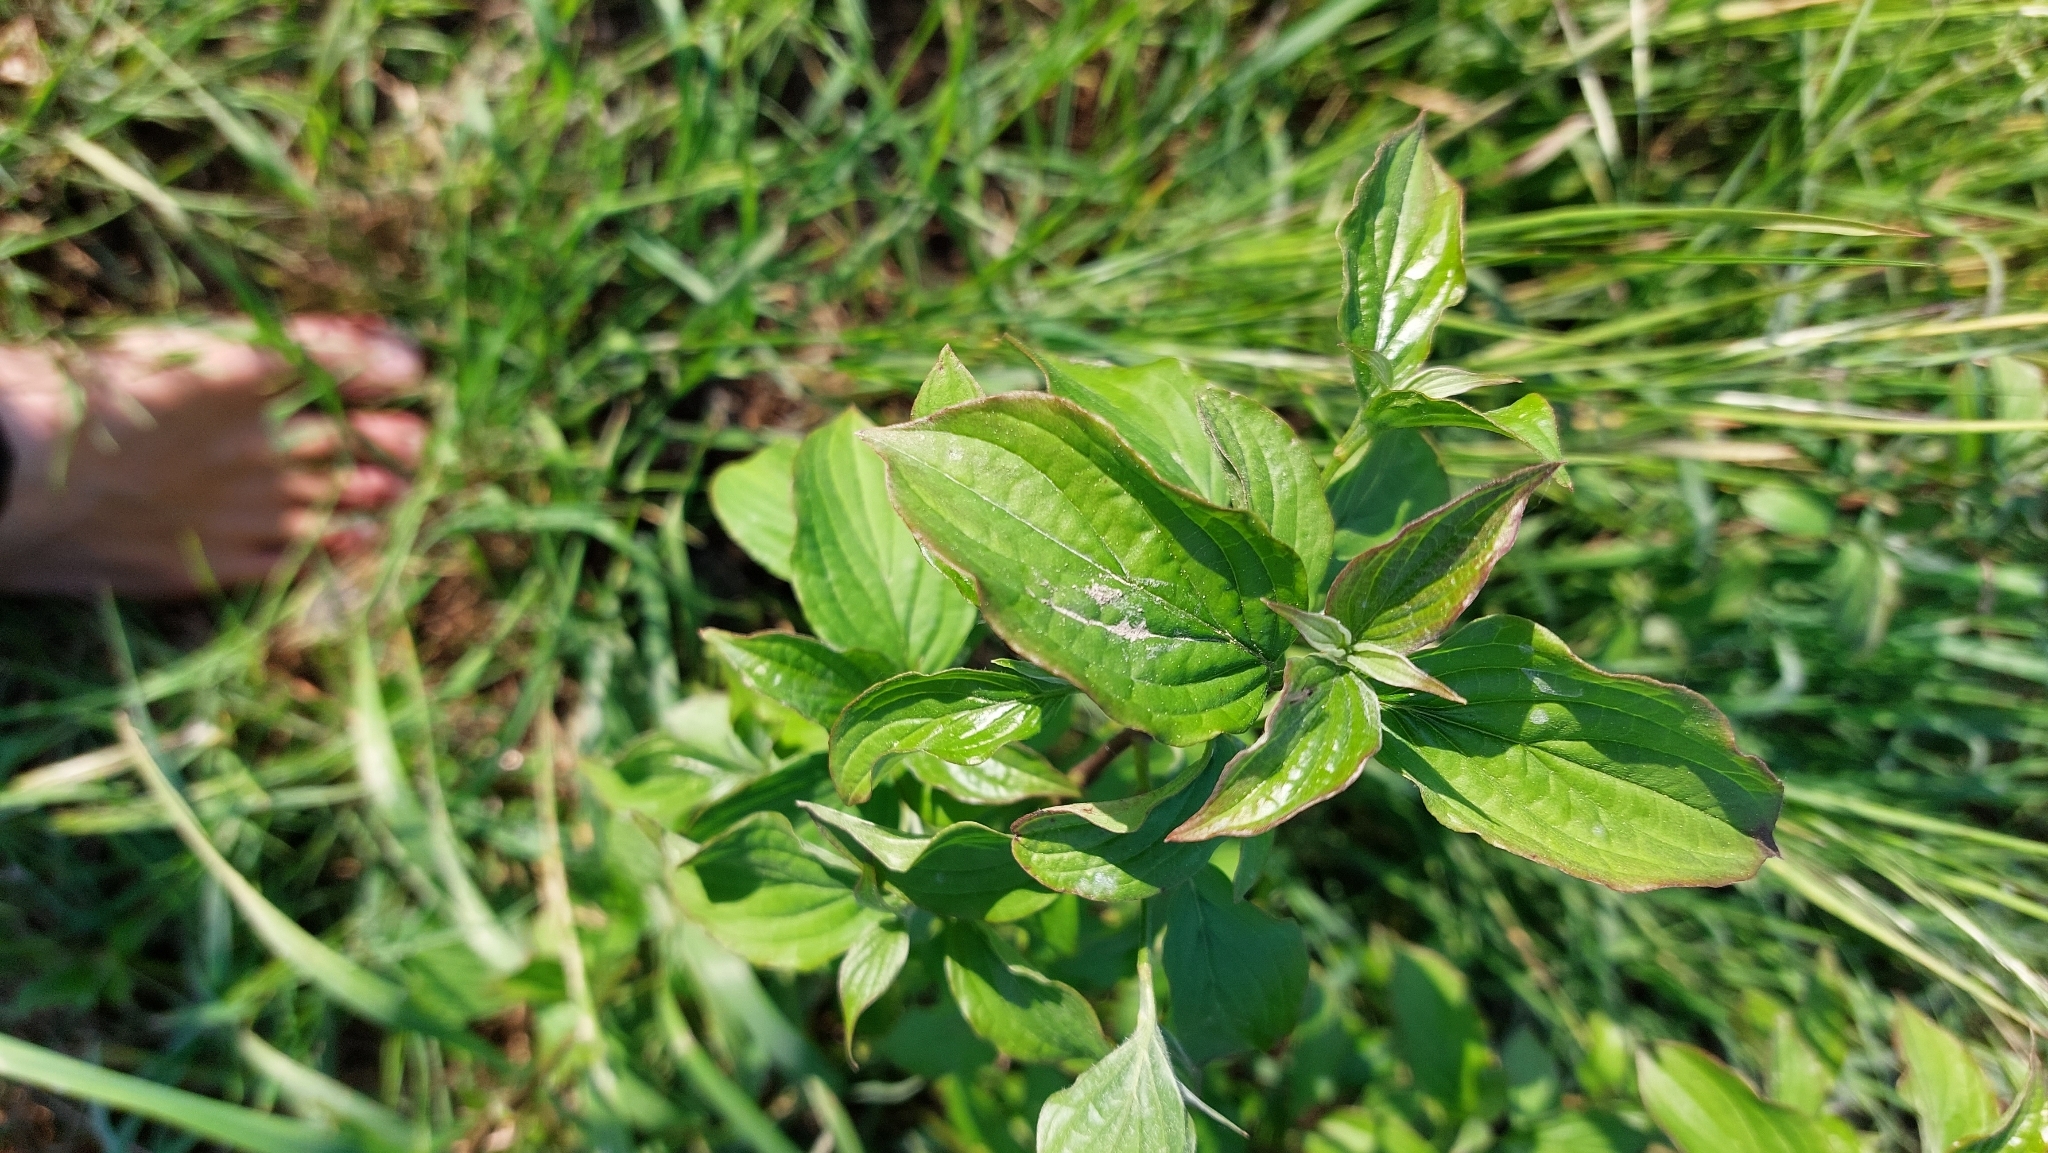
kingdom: Plantae
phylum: Tracheophyta
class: Magnoliopsida
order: Cornales
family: Cornaceae
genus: Cornus
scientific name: Cornus sanguinea
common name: Dogwood
